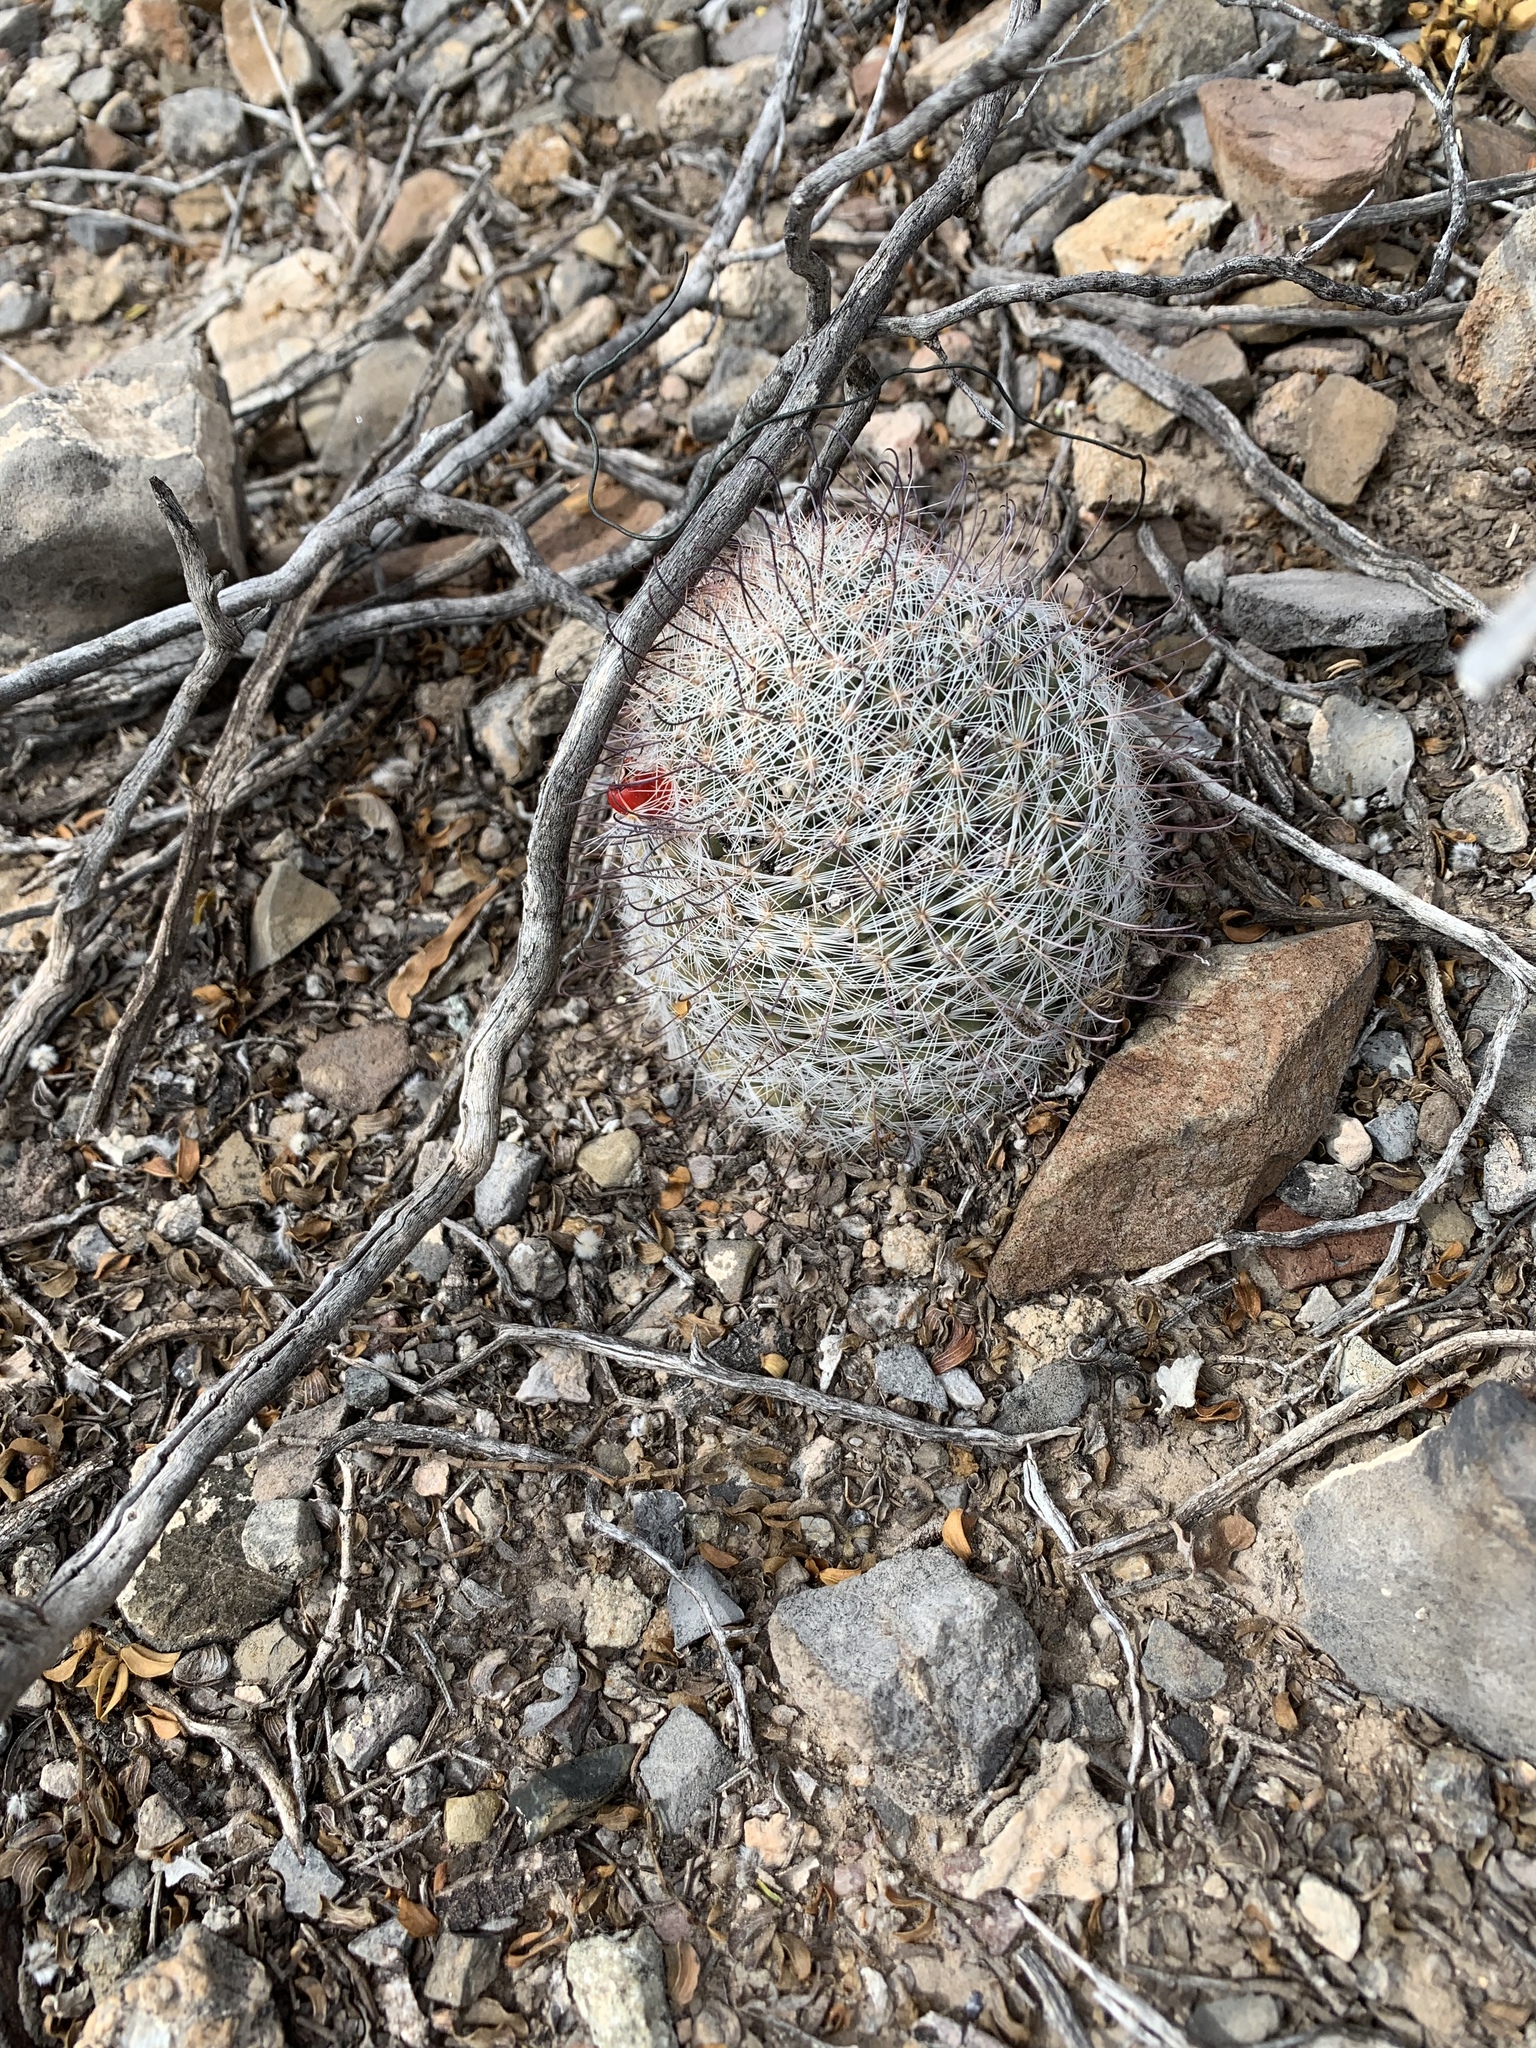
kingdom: Plantae
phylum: Tracheophyta
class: Magnoliopsida
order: Caryophyllales
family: Cactaceae
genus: Cochemiea
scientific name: Cochemiea grahamii
